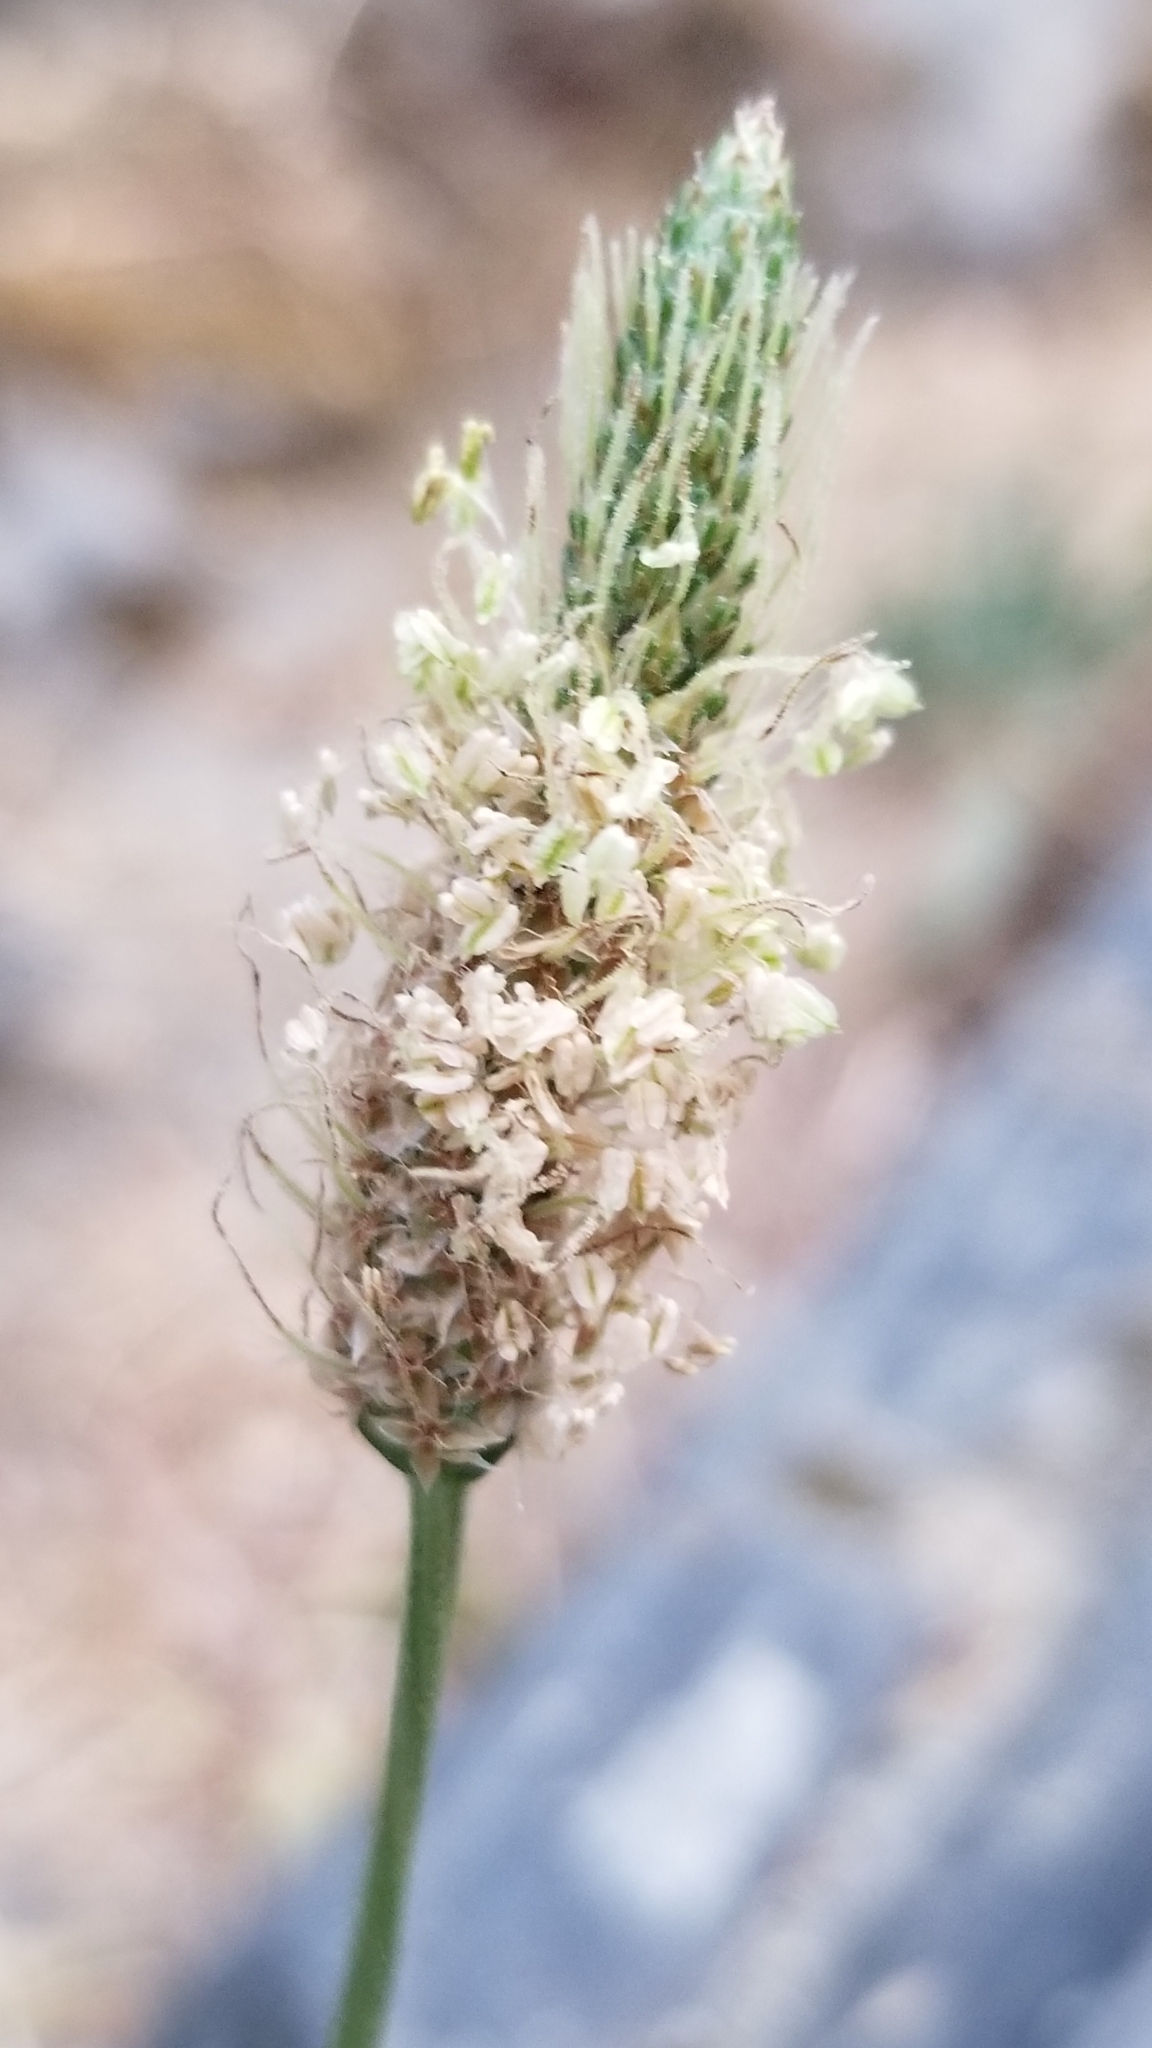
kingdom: Plantae
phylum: Tracheophyta
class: Magnoliopsida
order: Lamiales
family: Plantaginaceae
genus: Plantago
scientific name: Plantago lanceolata
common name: Ribwort plantain
